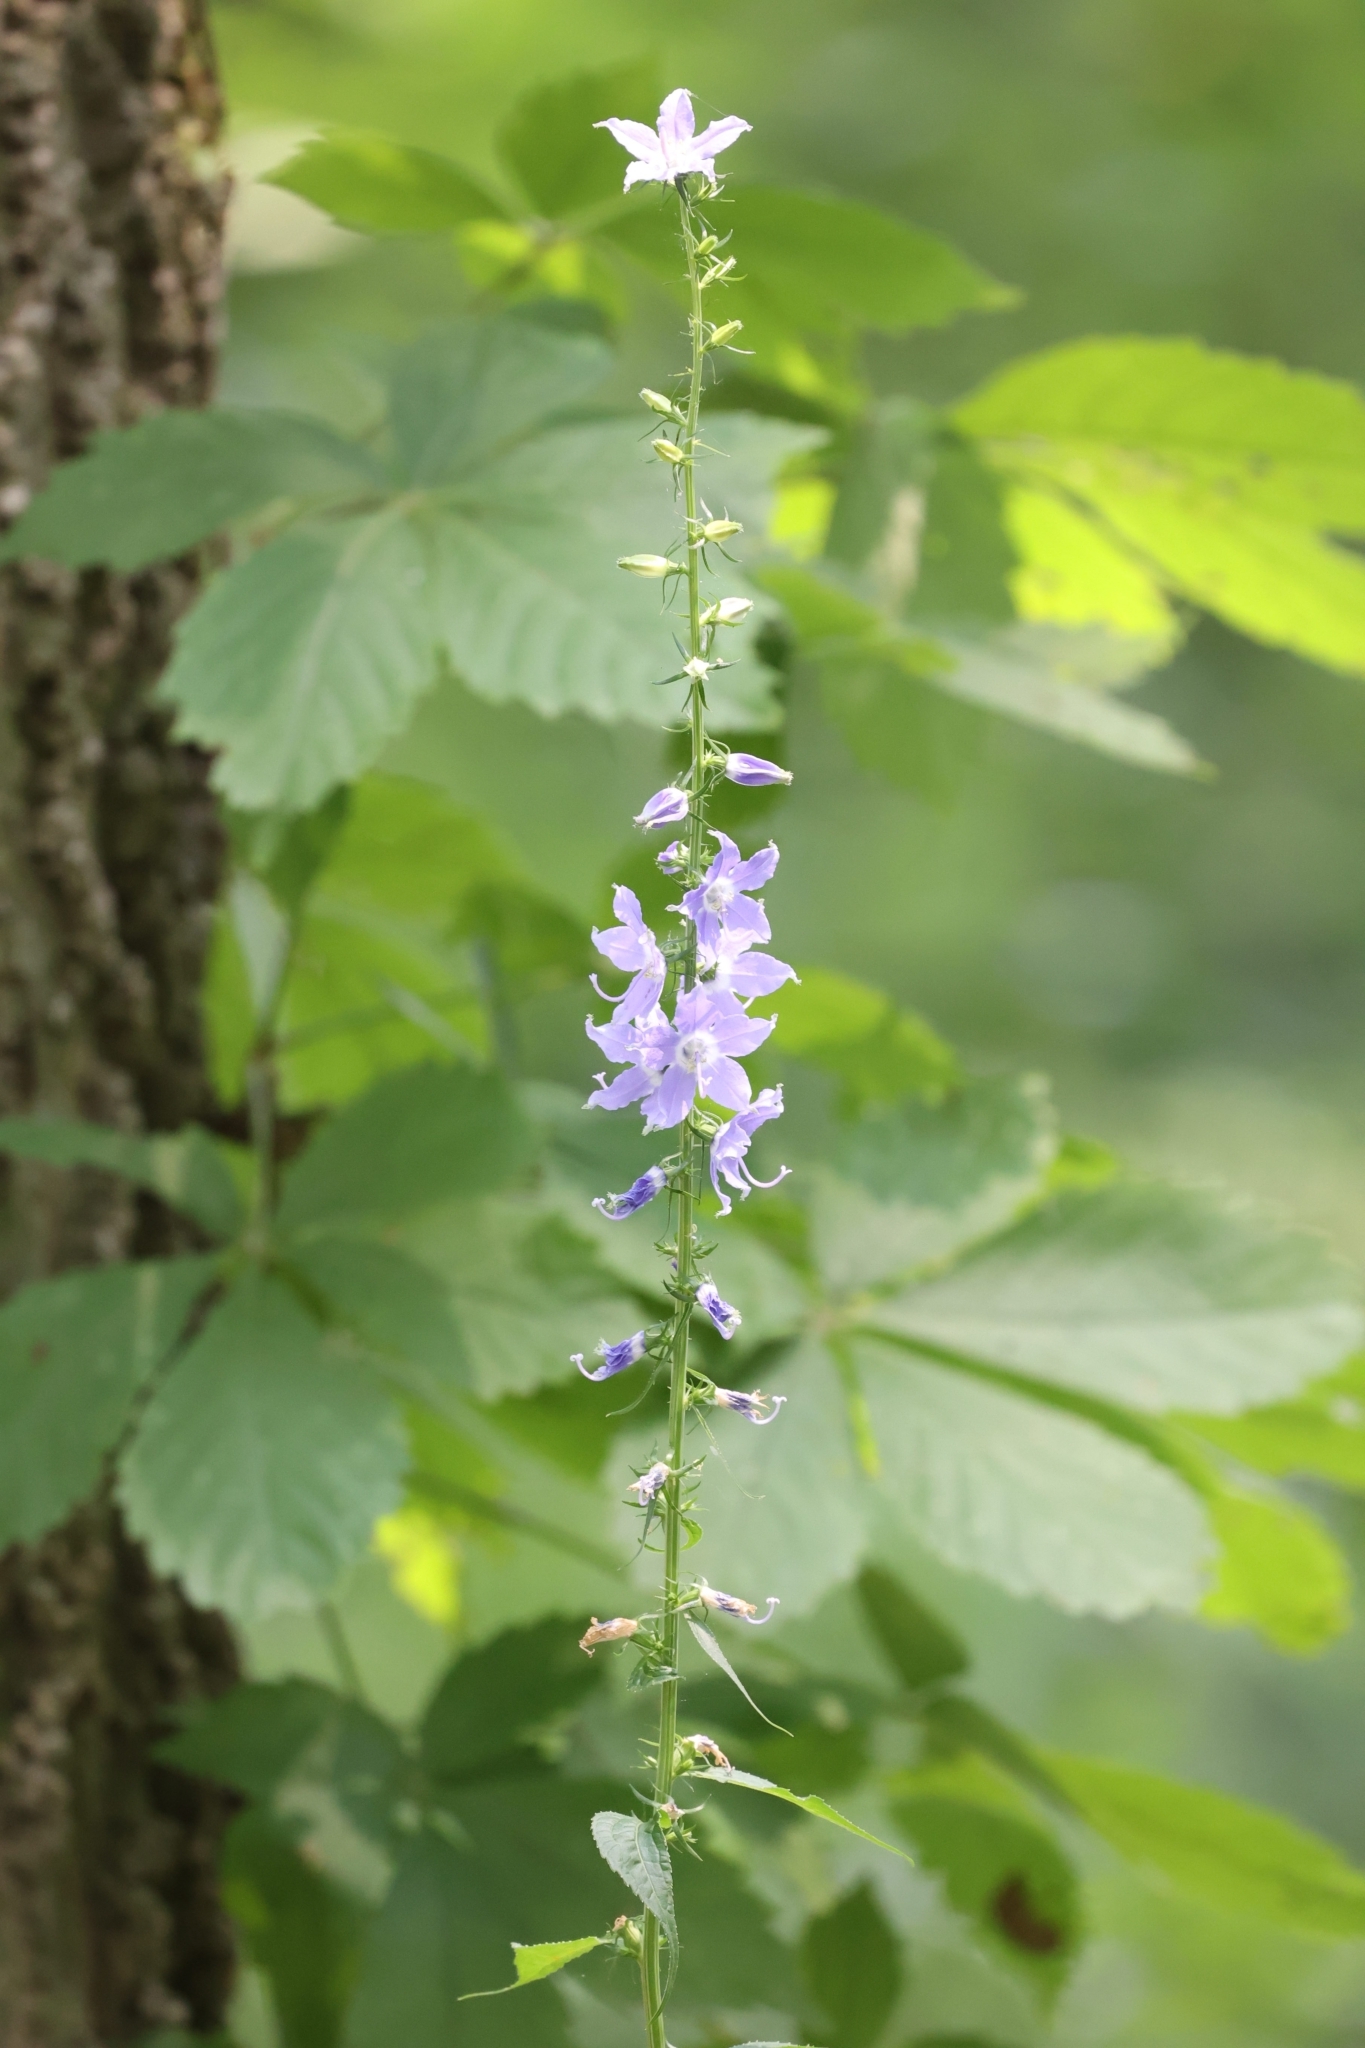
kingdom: Plantae
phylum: Tracheophyta
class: Magnoliopsida
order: Asterales
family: Campanulaceae
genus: Campanulastrum
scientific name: Campanulastrum americanum
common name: American bellflower
